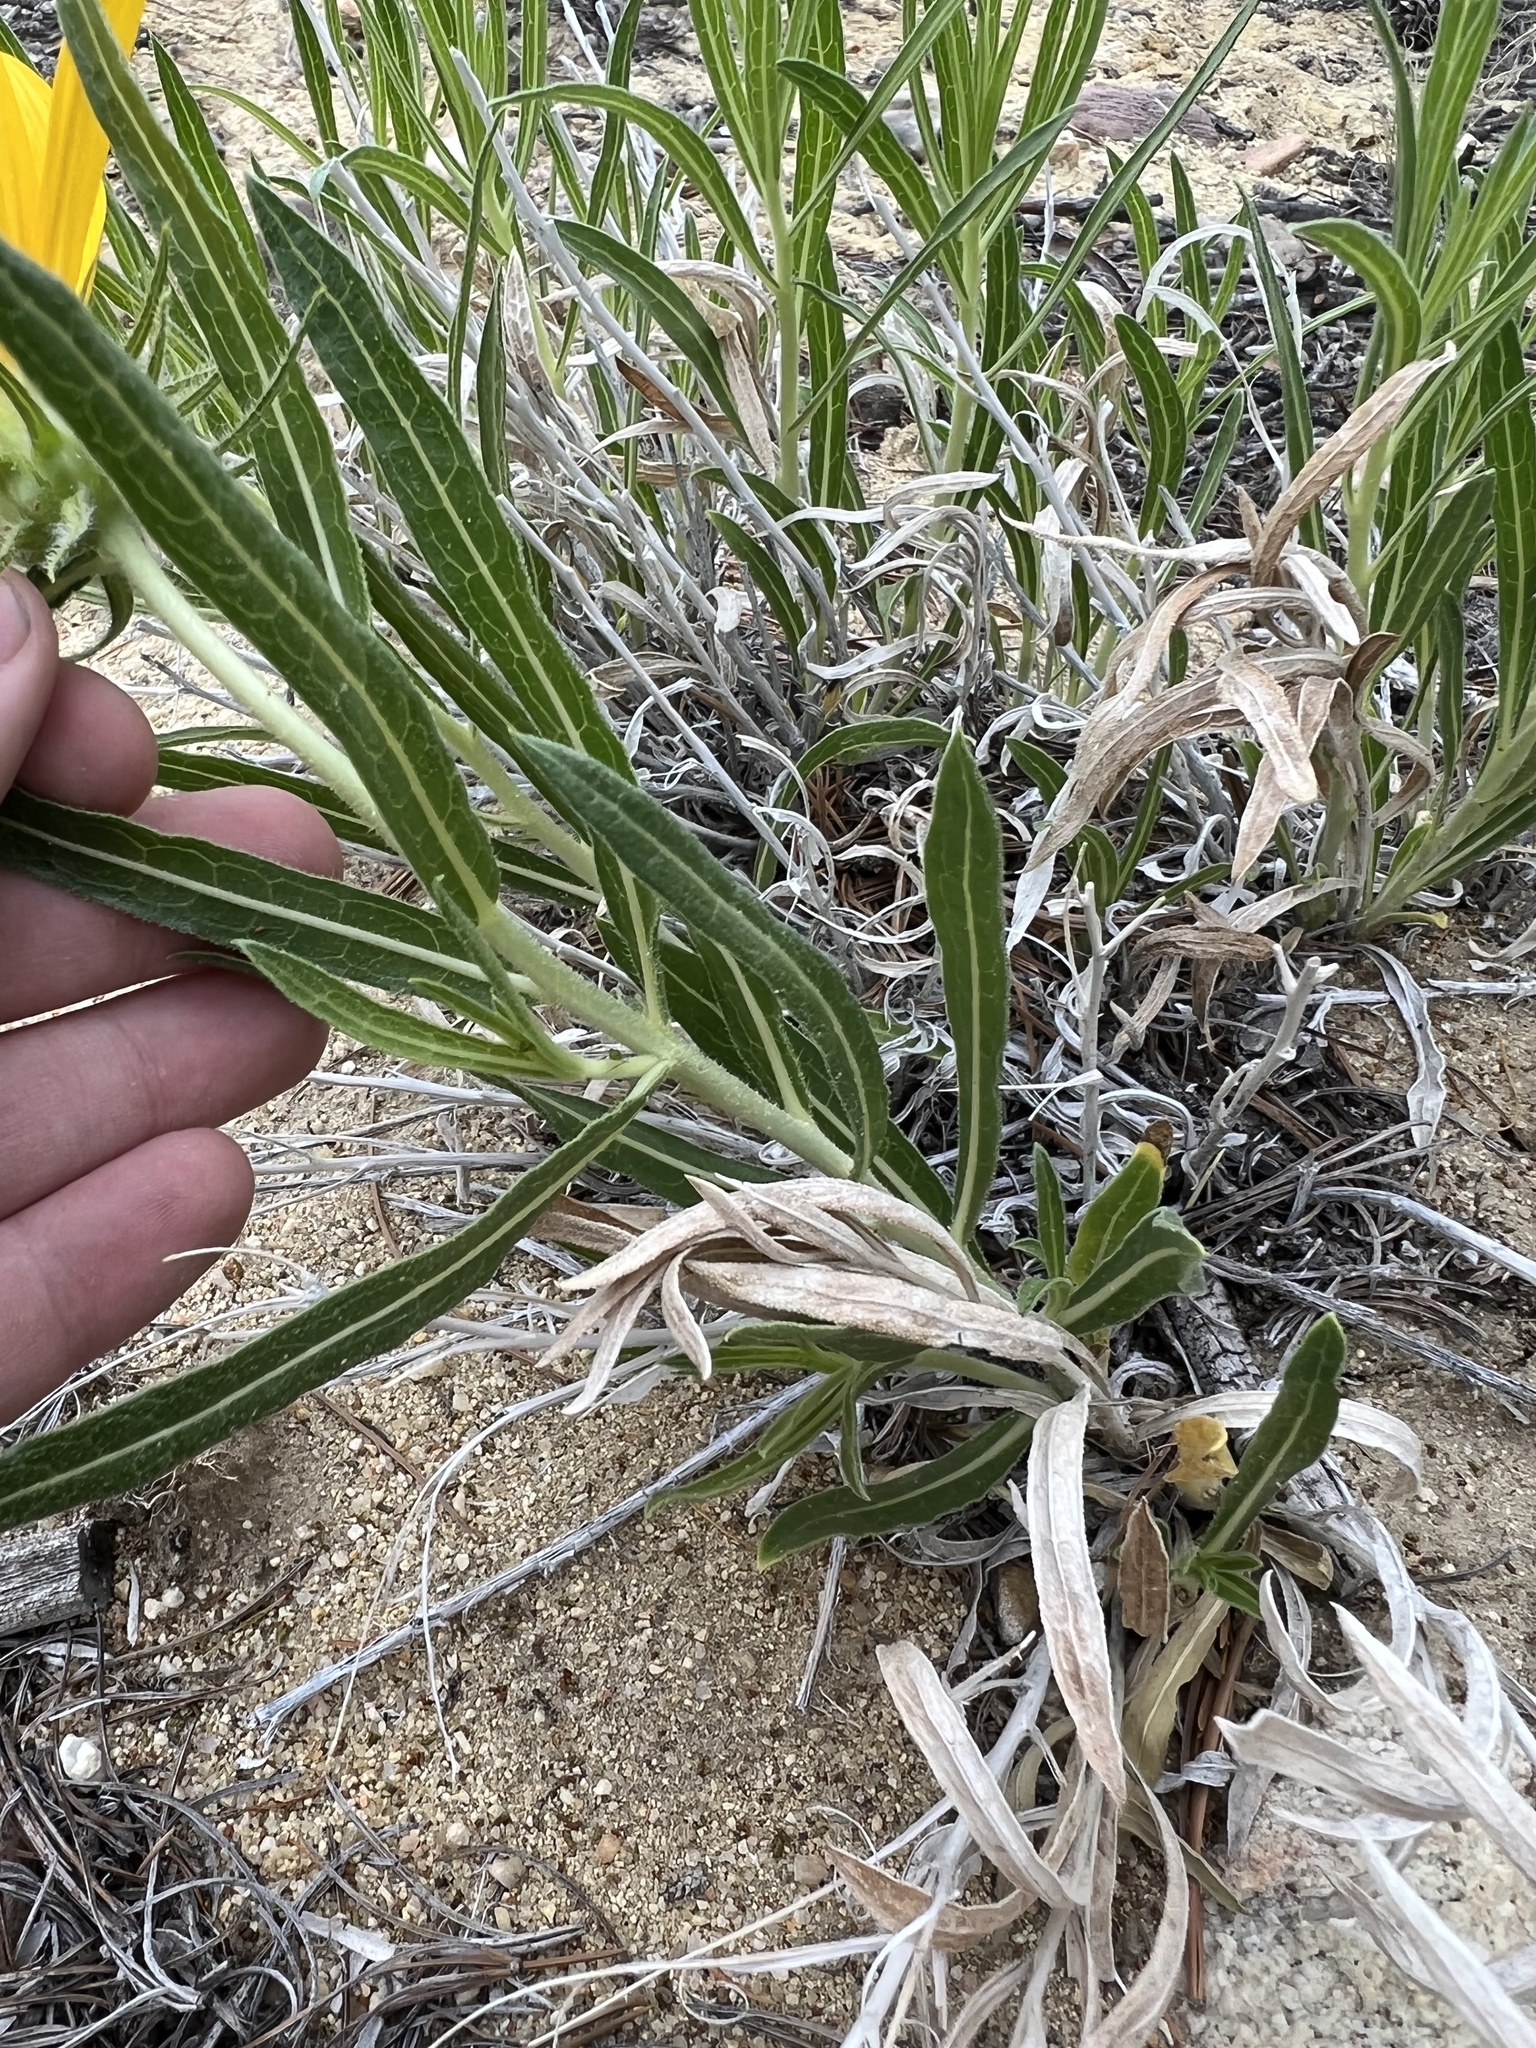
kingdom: Plantae
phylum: Tracheophyta
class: Magnoliopsida
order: Asterales
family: Asteraceae
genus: Scabrethia
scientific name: Scabrethia scabra
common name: Rough mules's-ears
